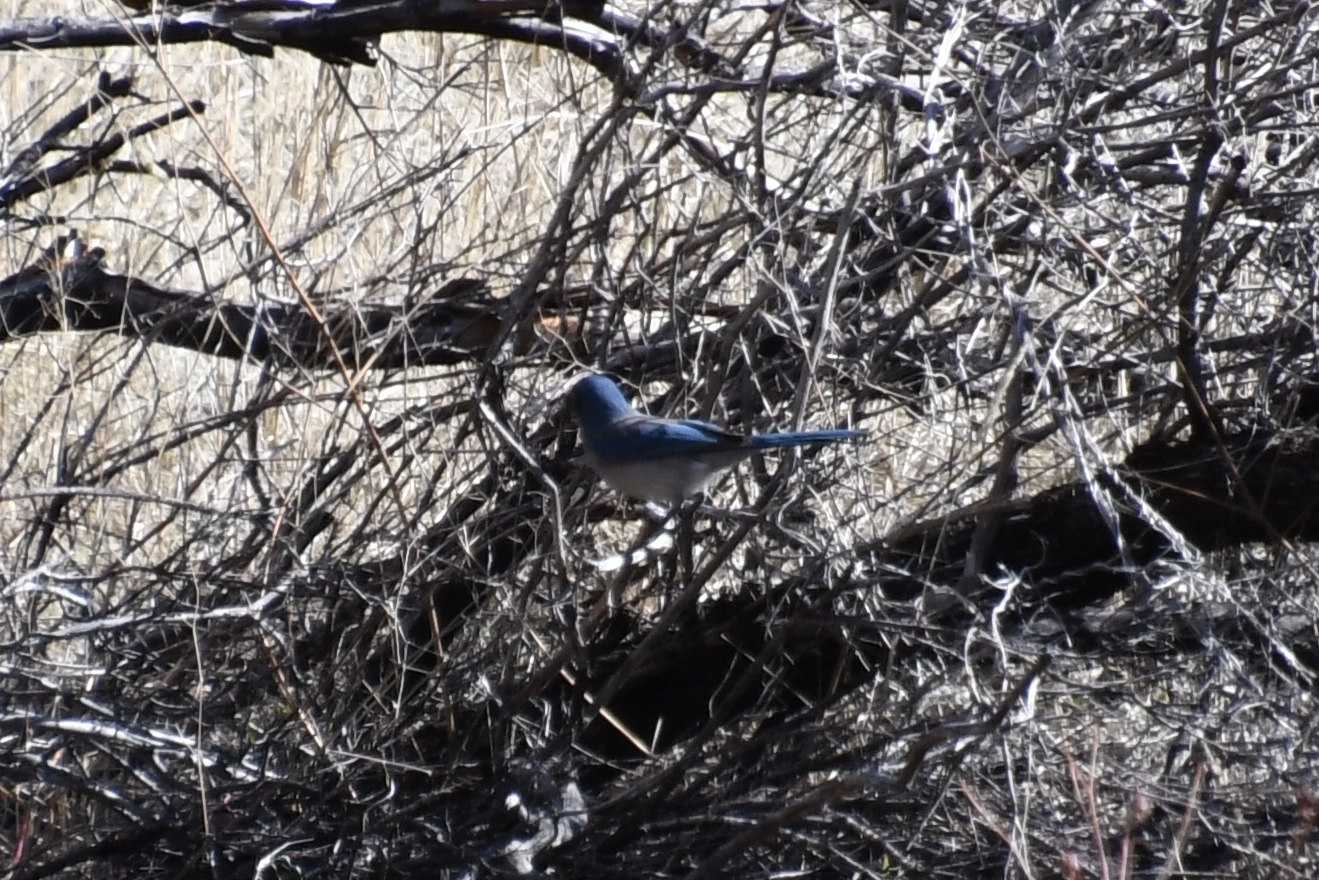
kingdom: Animalia
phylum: Chordata
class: Aves
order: Passeriformes
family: Corvidae
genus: Aphelocoma
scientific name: Aphelocoma woodhouseii
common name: Woodhouse's scrub-jay
